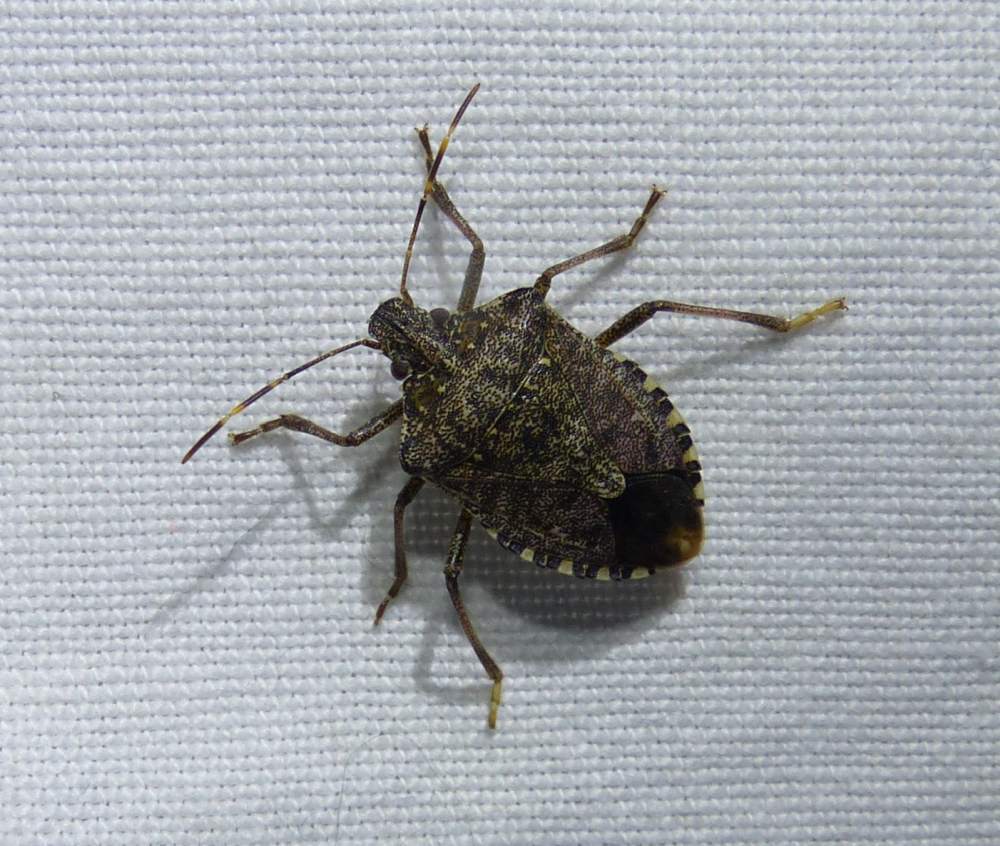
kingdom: Animalia
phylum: Arthropoda
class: Insecta
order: Hemiptera
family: Pentatomidae
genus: Halyomorpha
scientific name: Halyomorpha halys
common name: Brown marmorated stink bug
